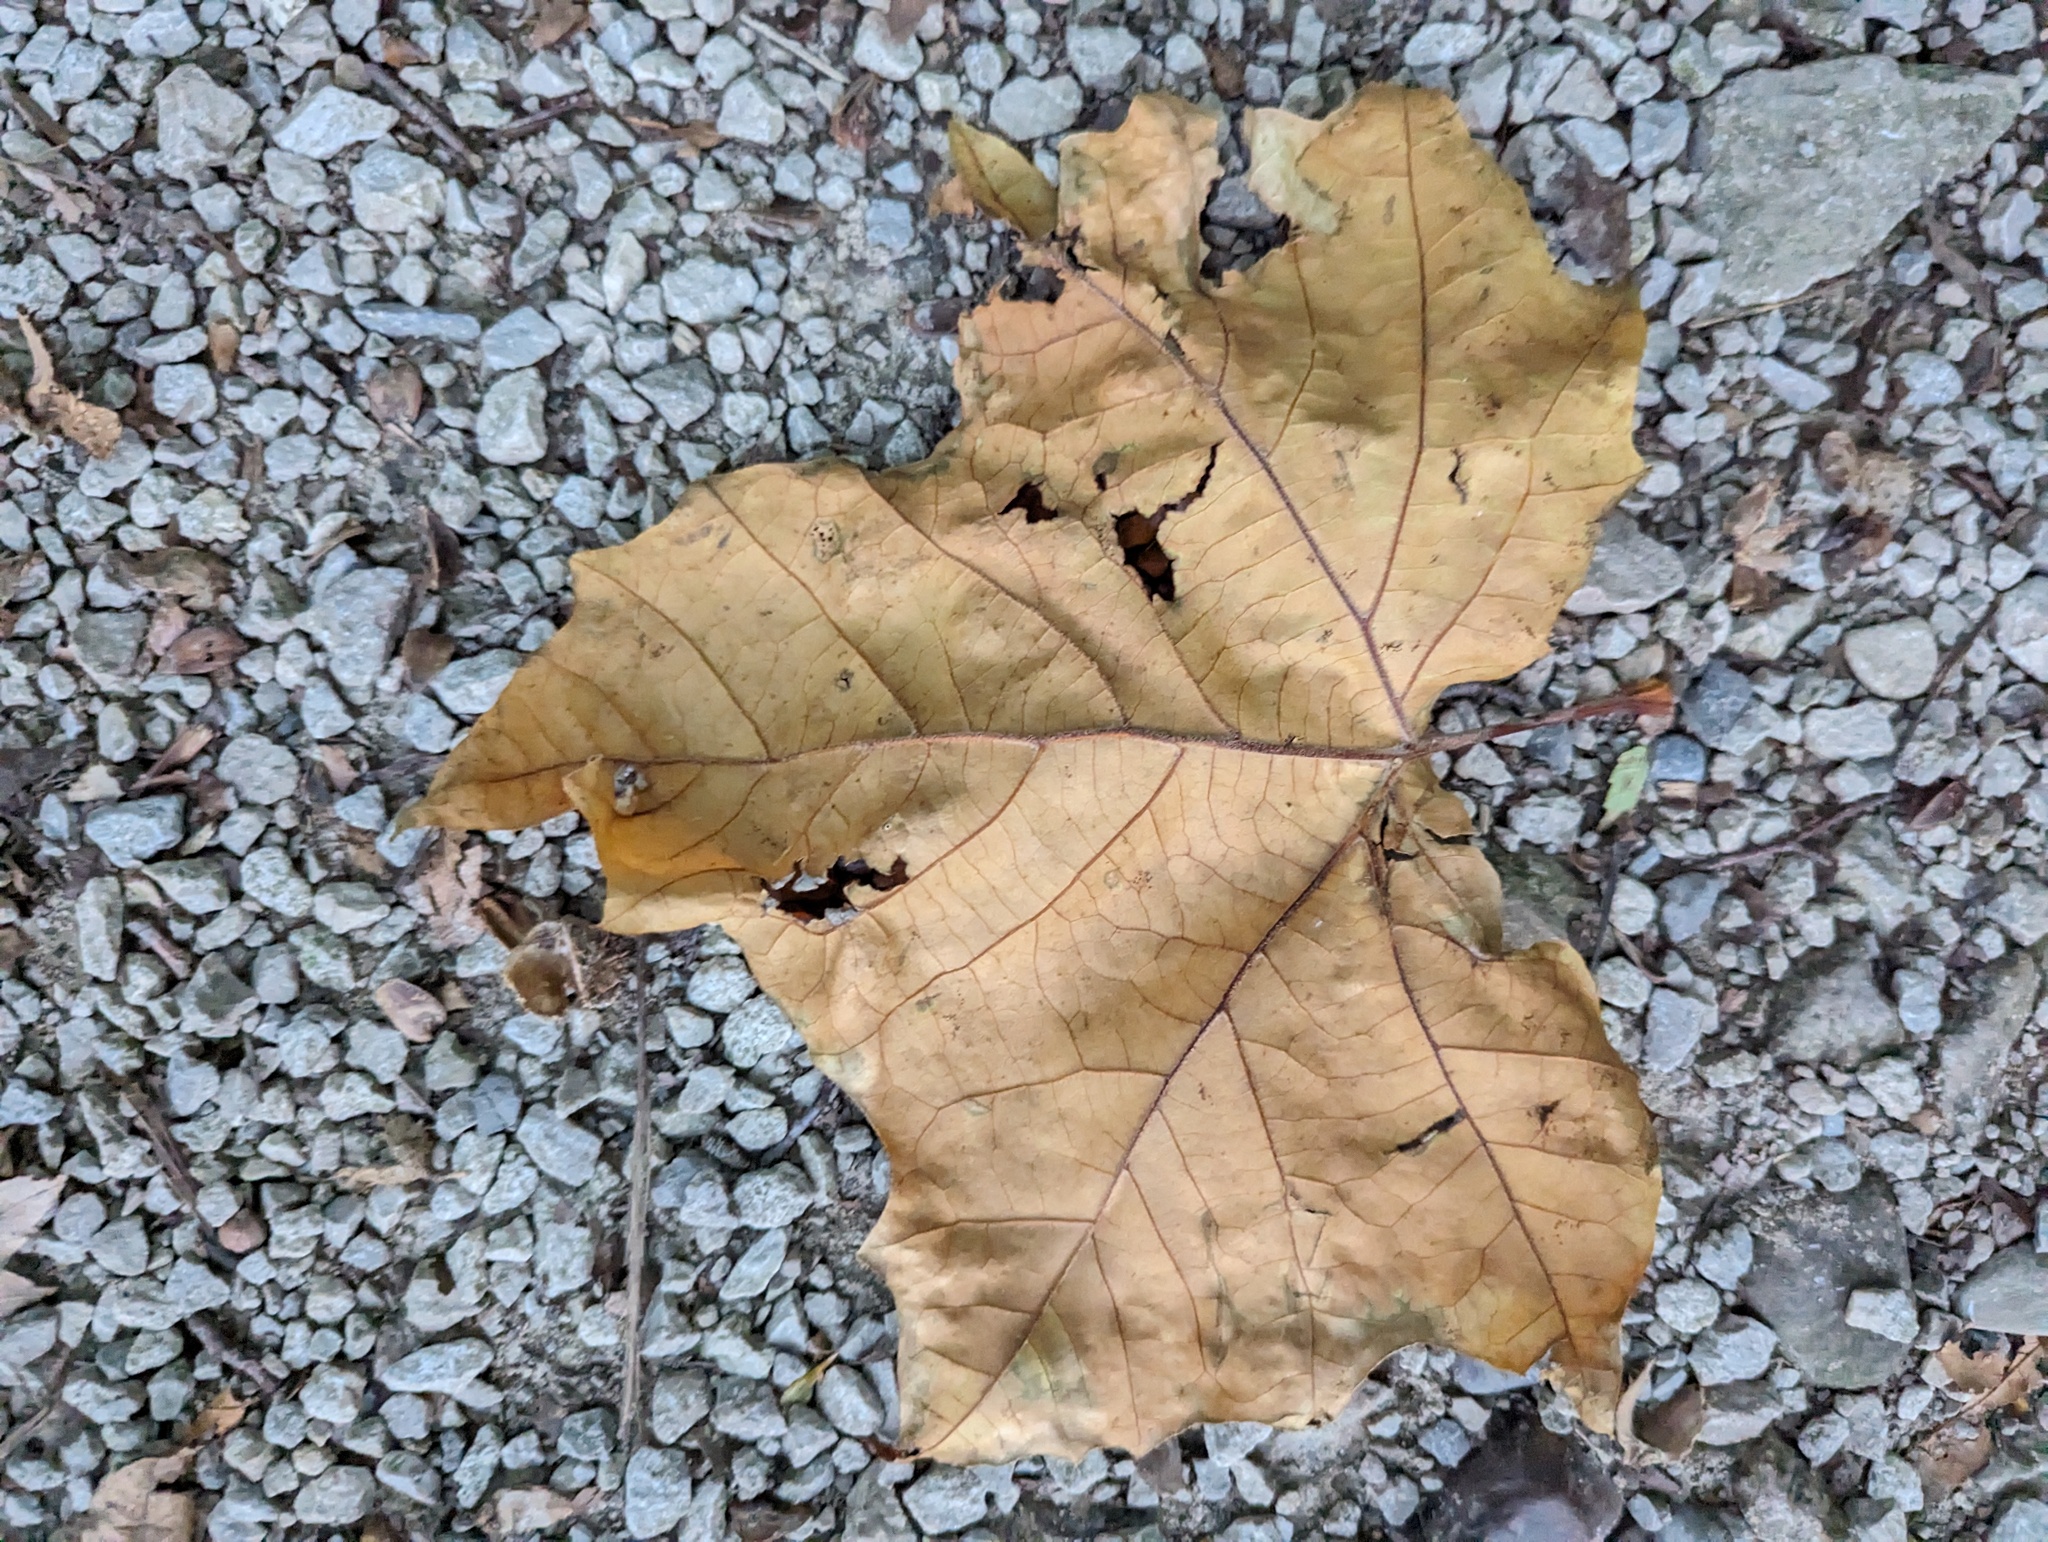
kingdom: Plantae
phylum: Tracheophyta
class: Magnoliopsida
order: Proteales
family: Platanaceae
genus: Platanus
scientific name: Platanus occidentalis
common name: American sycamore
